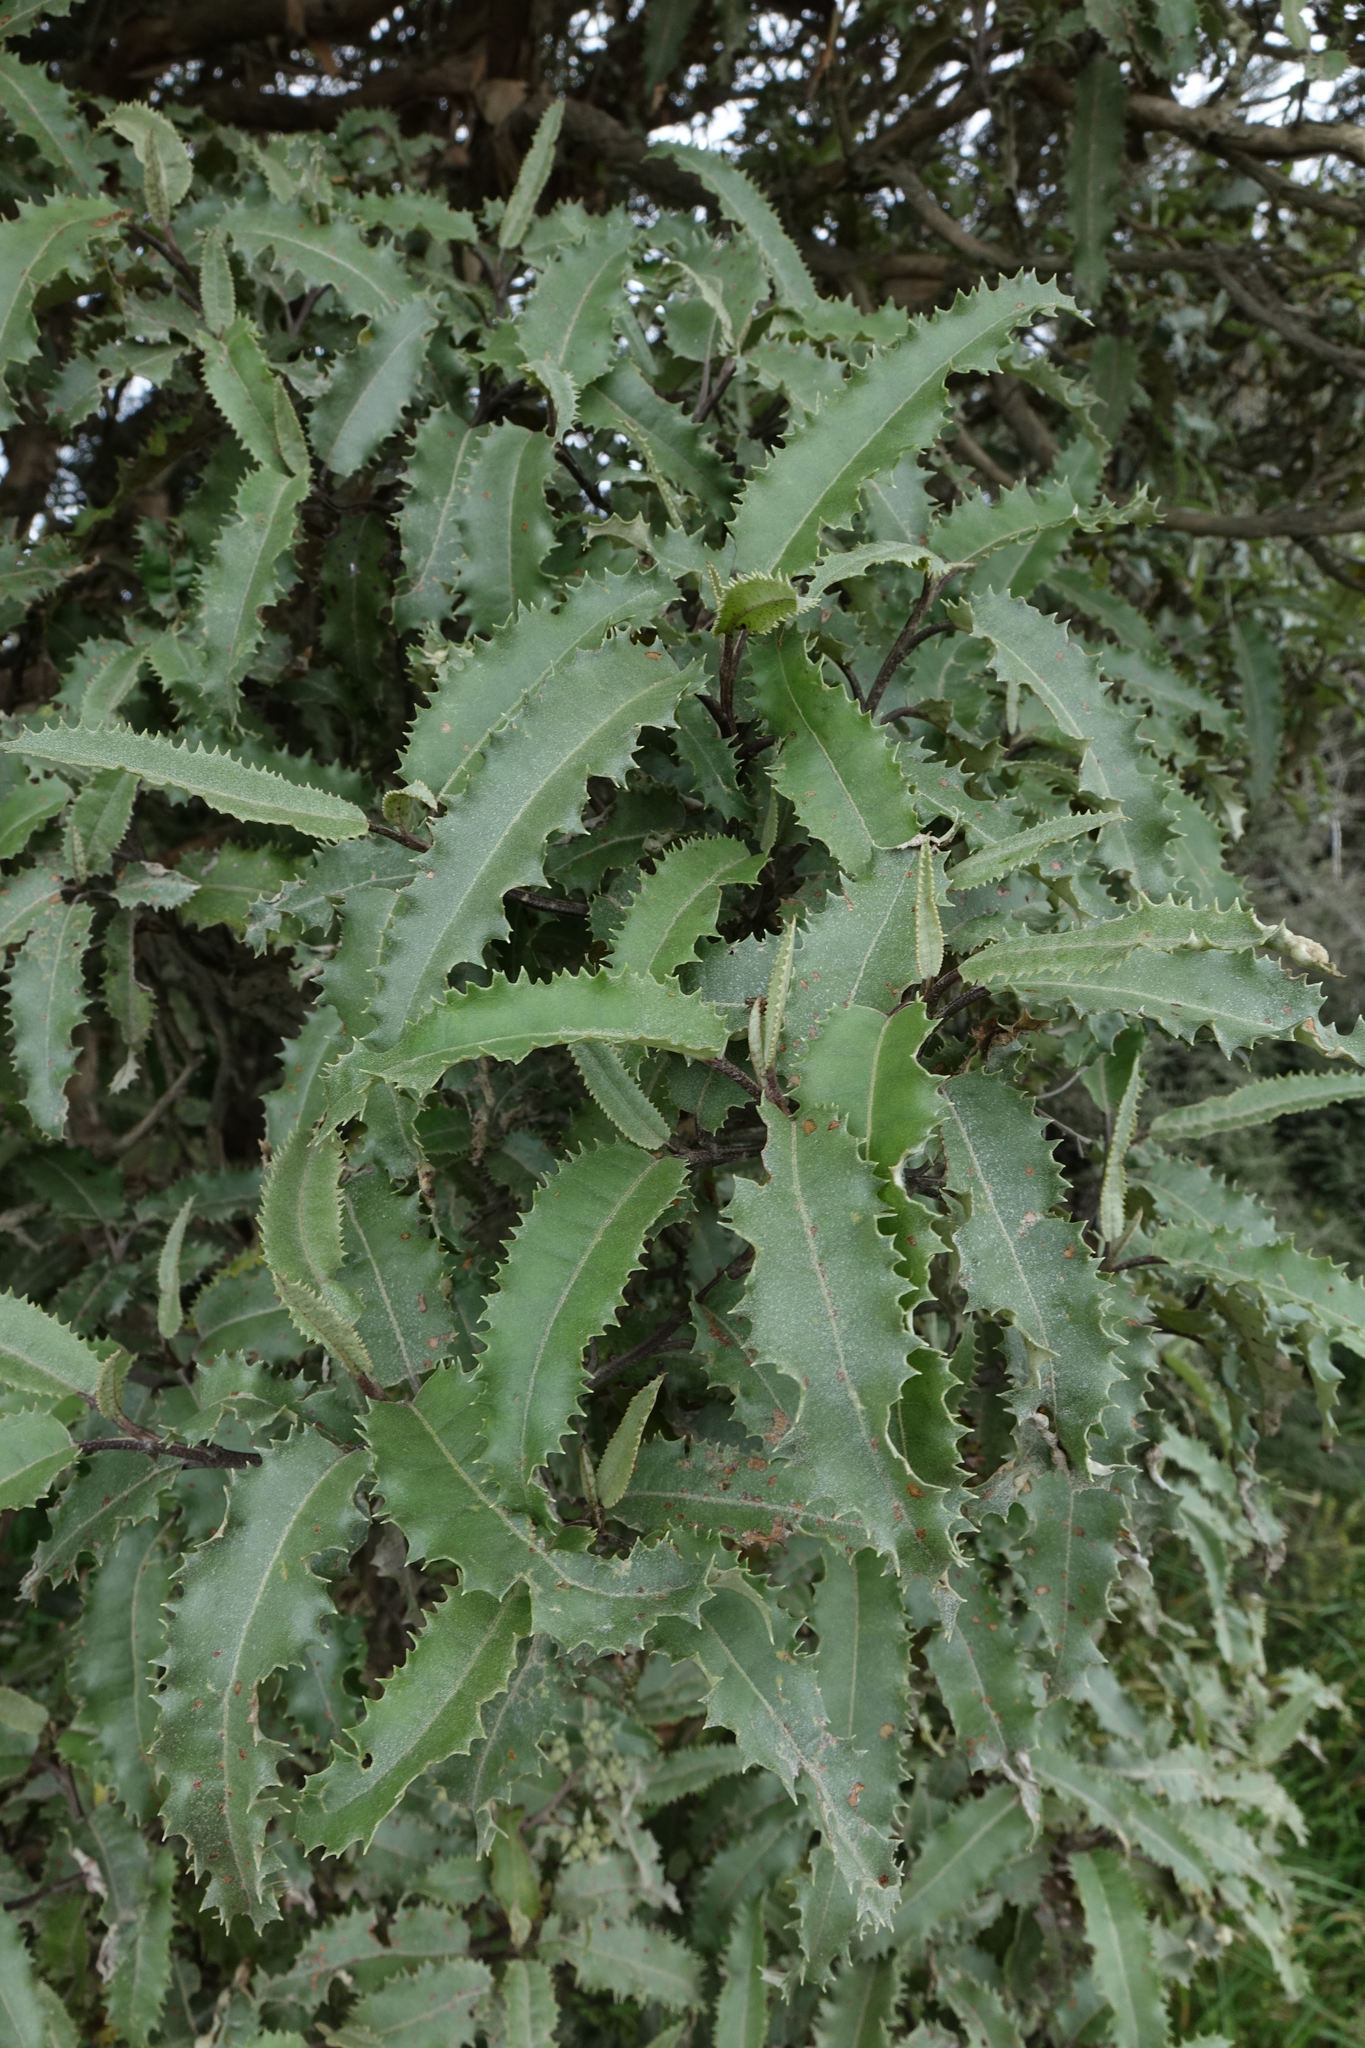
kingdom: Plantae
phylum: Tracheophyta
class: Magnoliopsida
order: Asterales
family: Asteraceae
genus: Olearia
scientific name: Olearia ilicifolia
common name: Maori-holly
